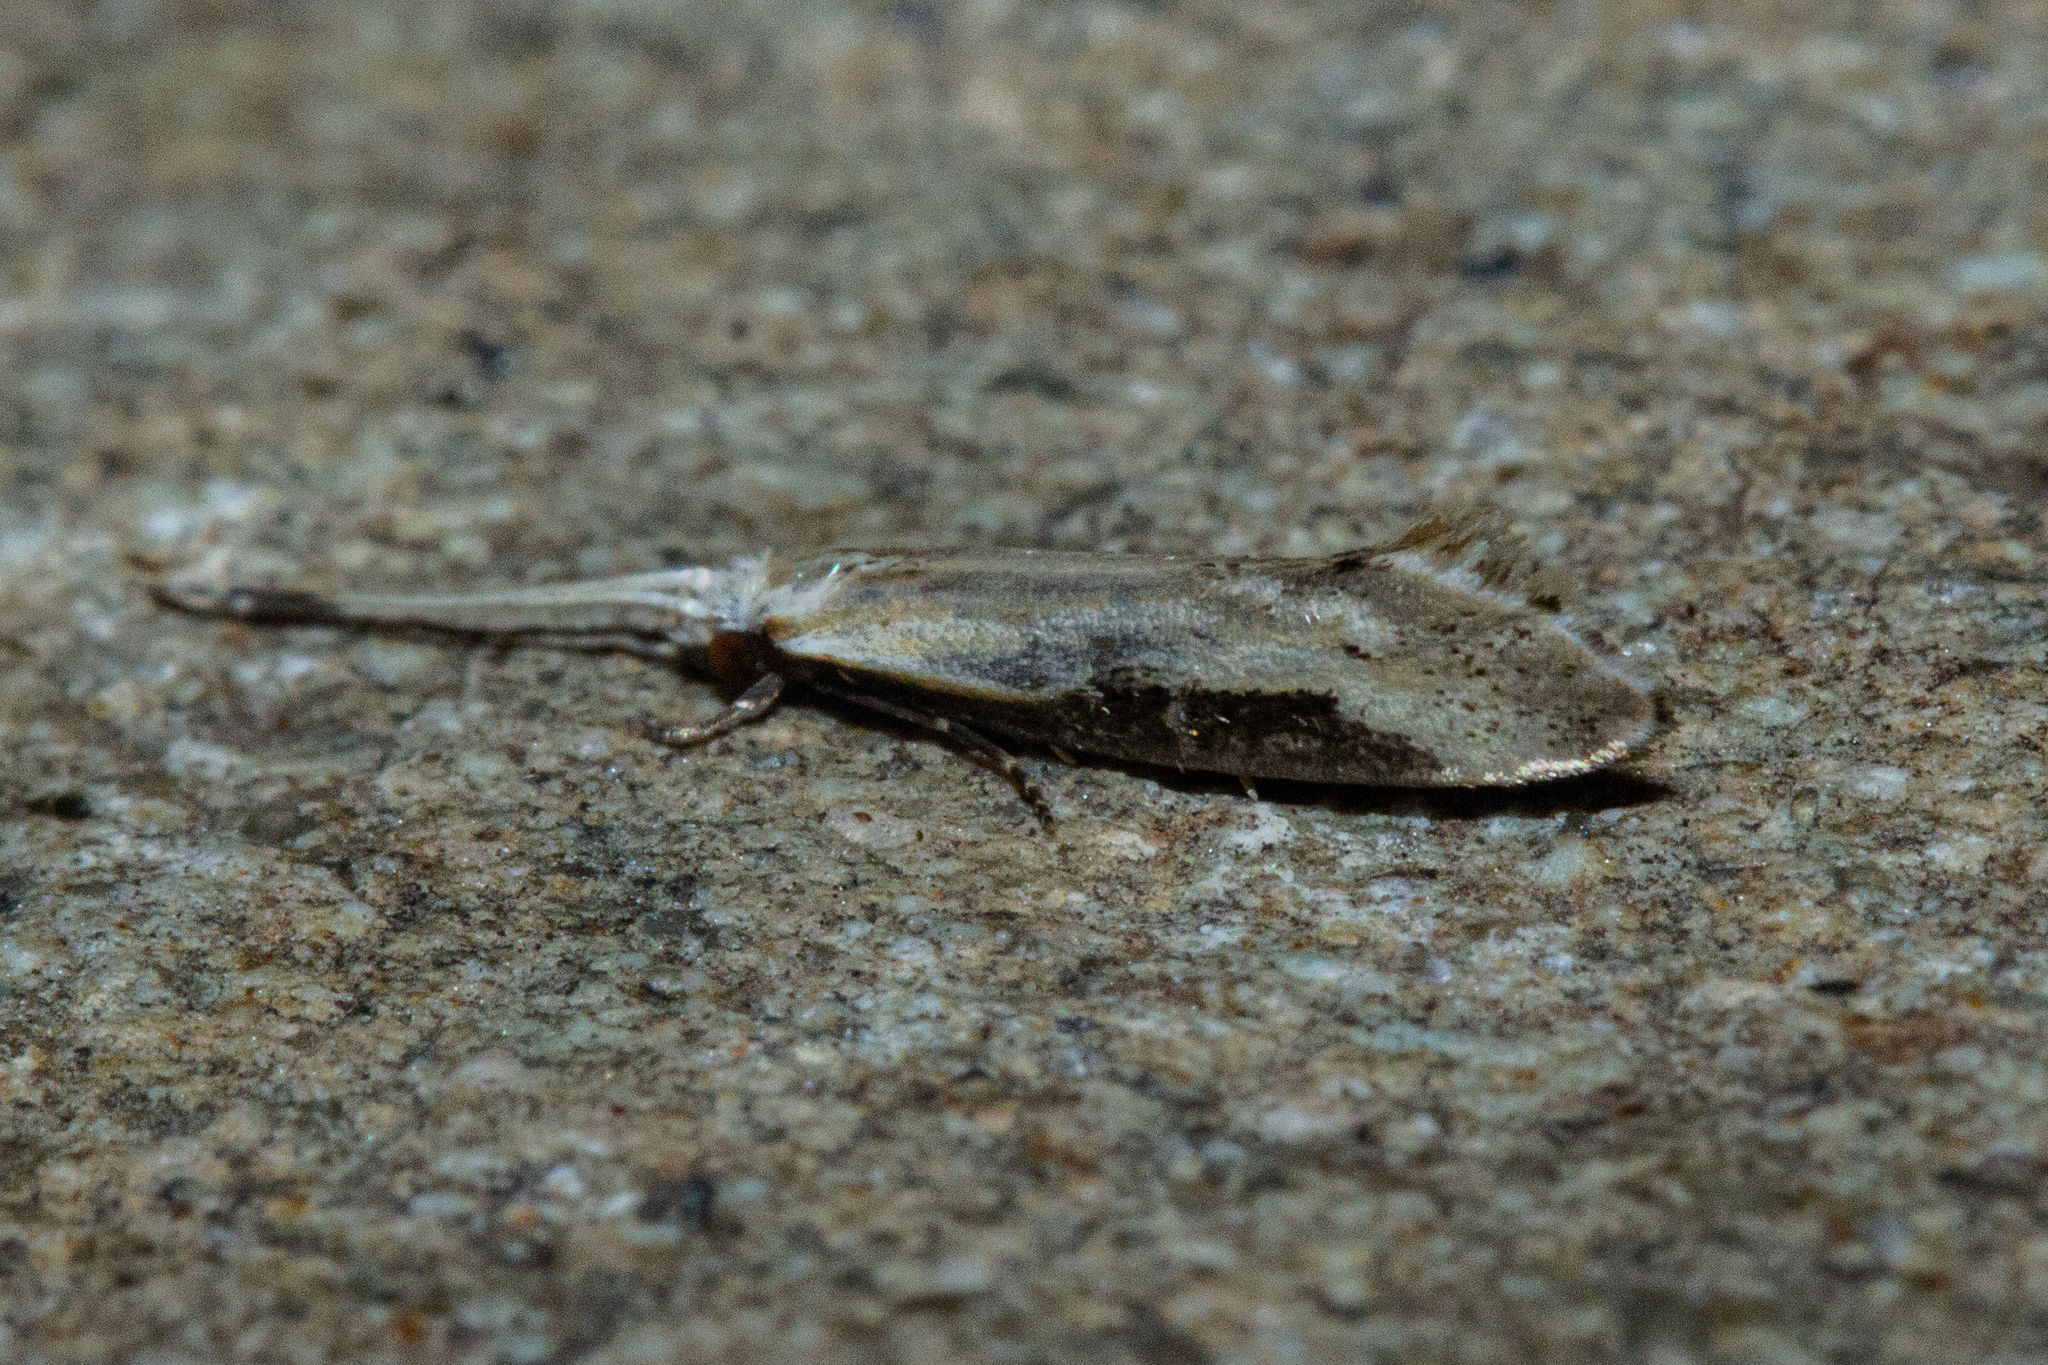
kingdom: Animalia
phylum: Arthropoda
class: Insecta
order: Lepidoptera
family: Tineidae
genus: Sagephora
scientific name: Sagephora phortegella
